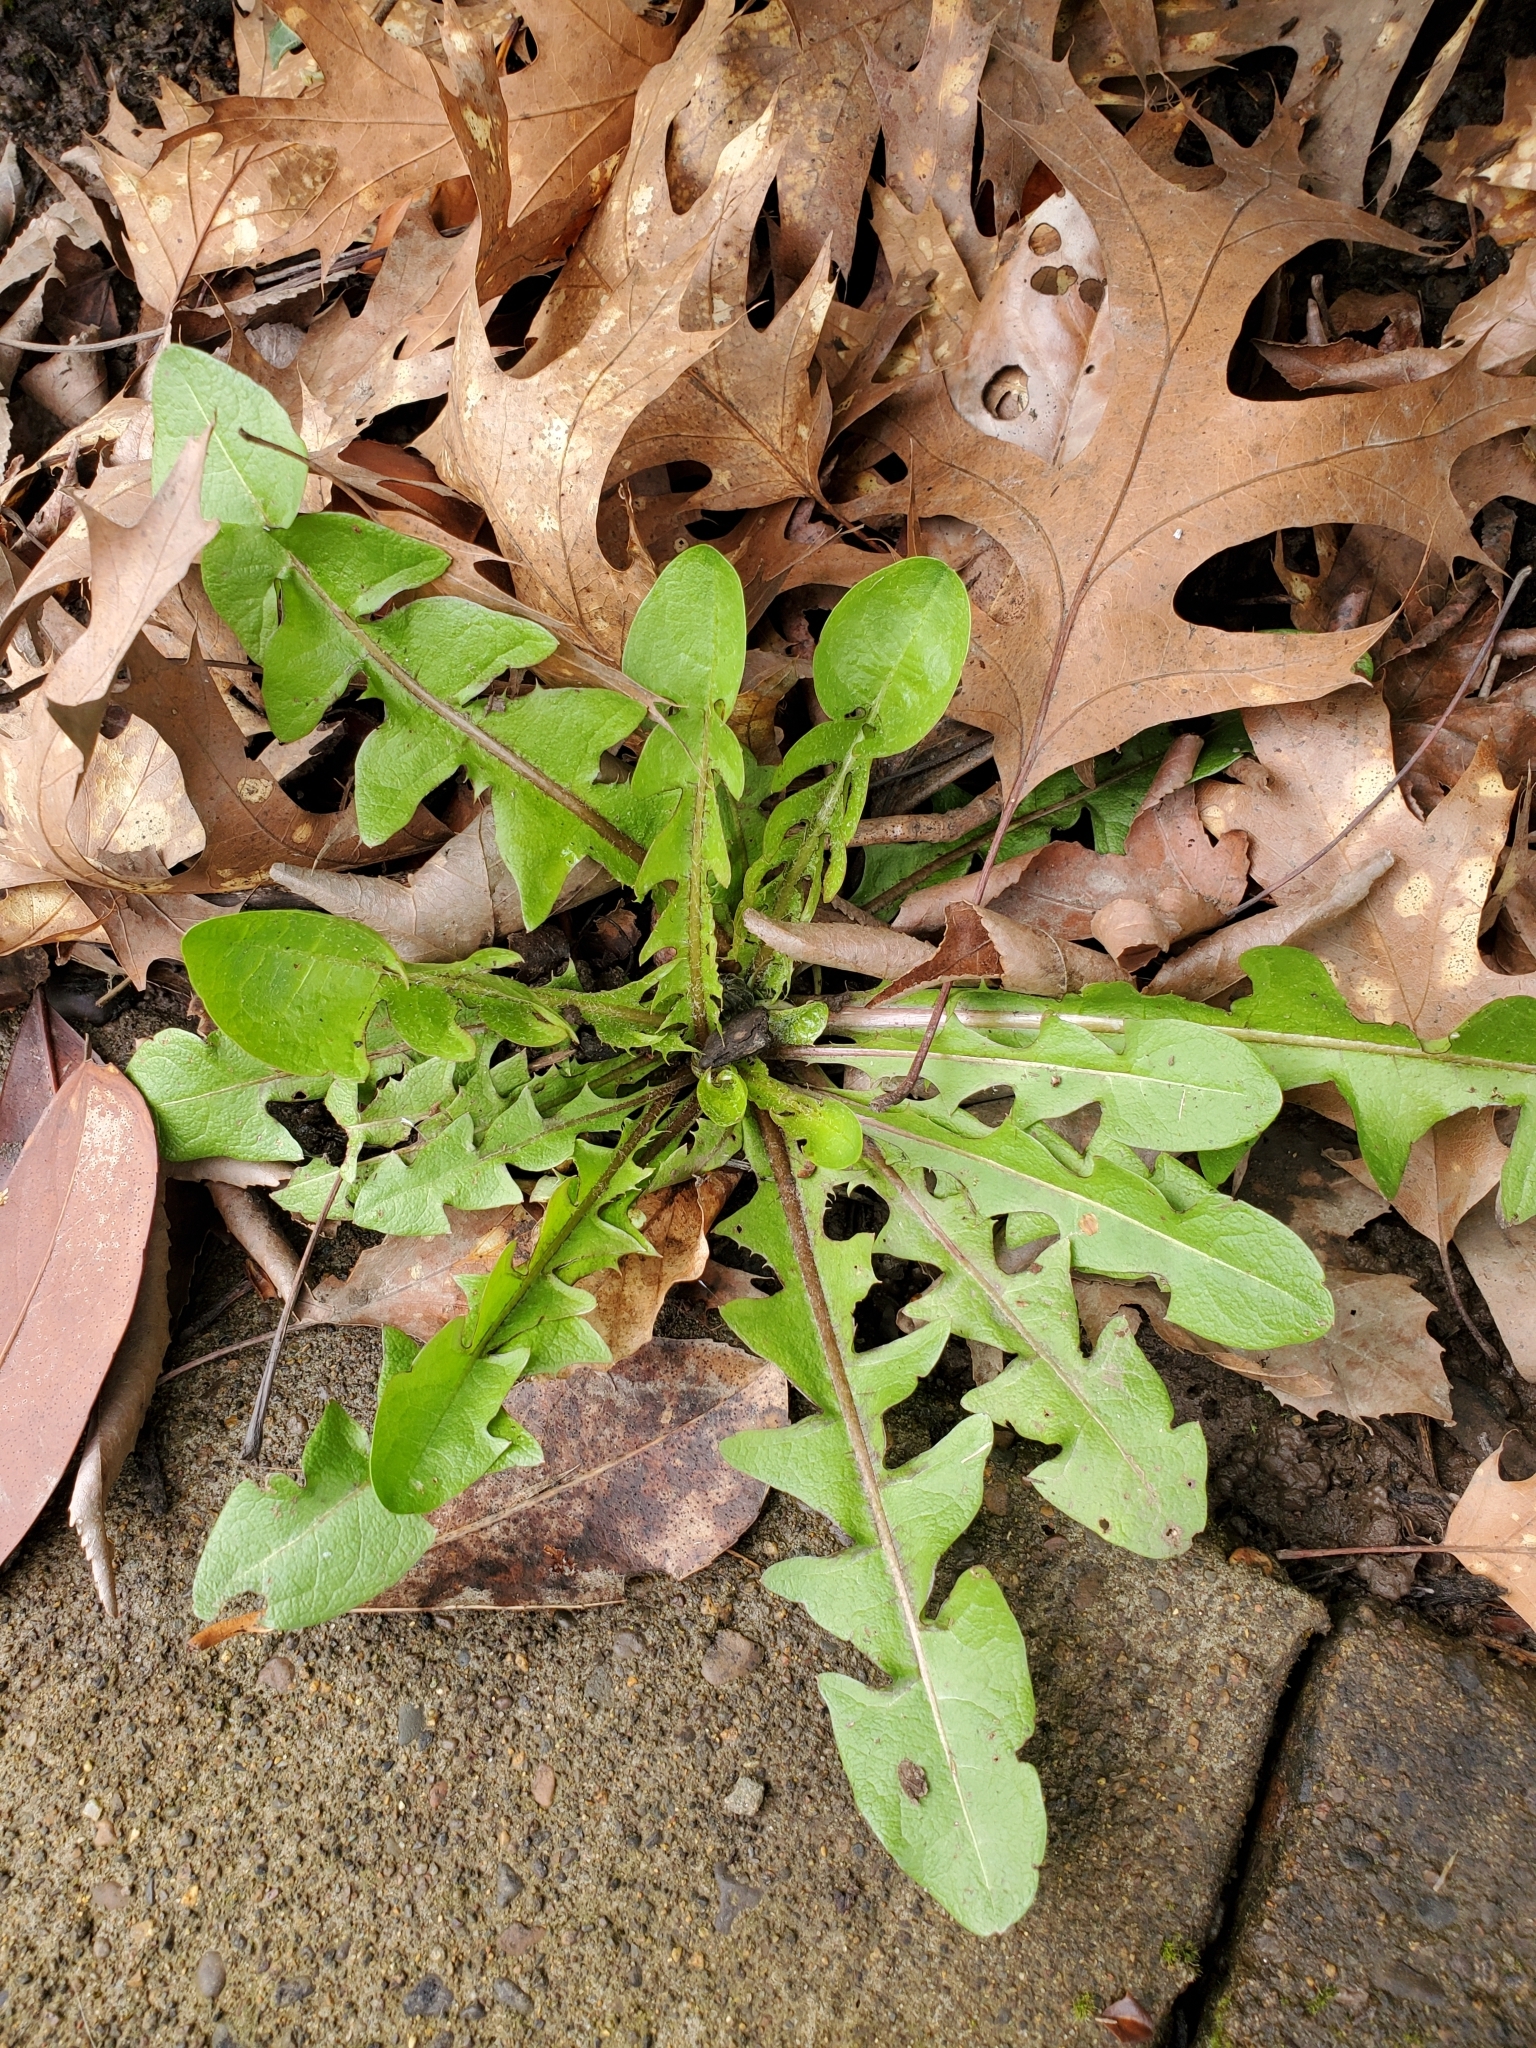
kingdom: Plantae
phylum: Tracheophyta
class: Magnoliopsida
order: Asterales
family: Asteraceae
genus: Taraxacum
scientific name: Taraxacum officinale
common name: Common dandelion
